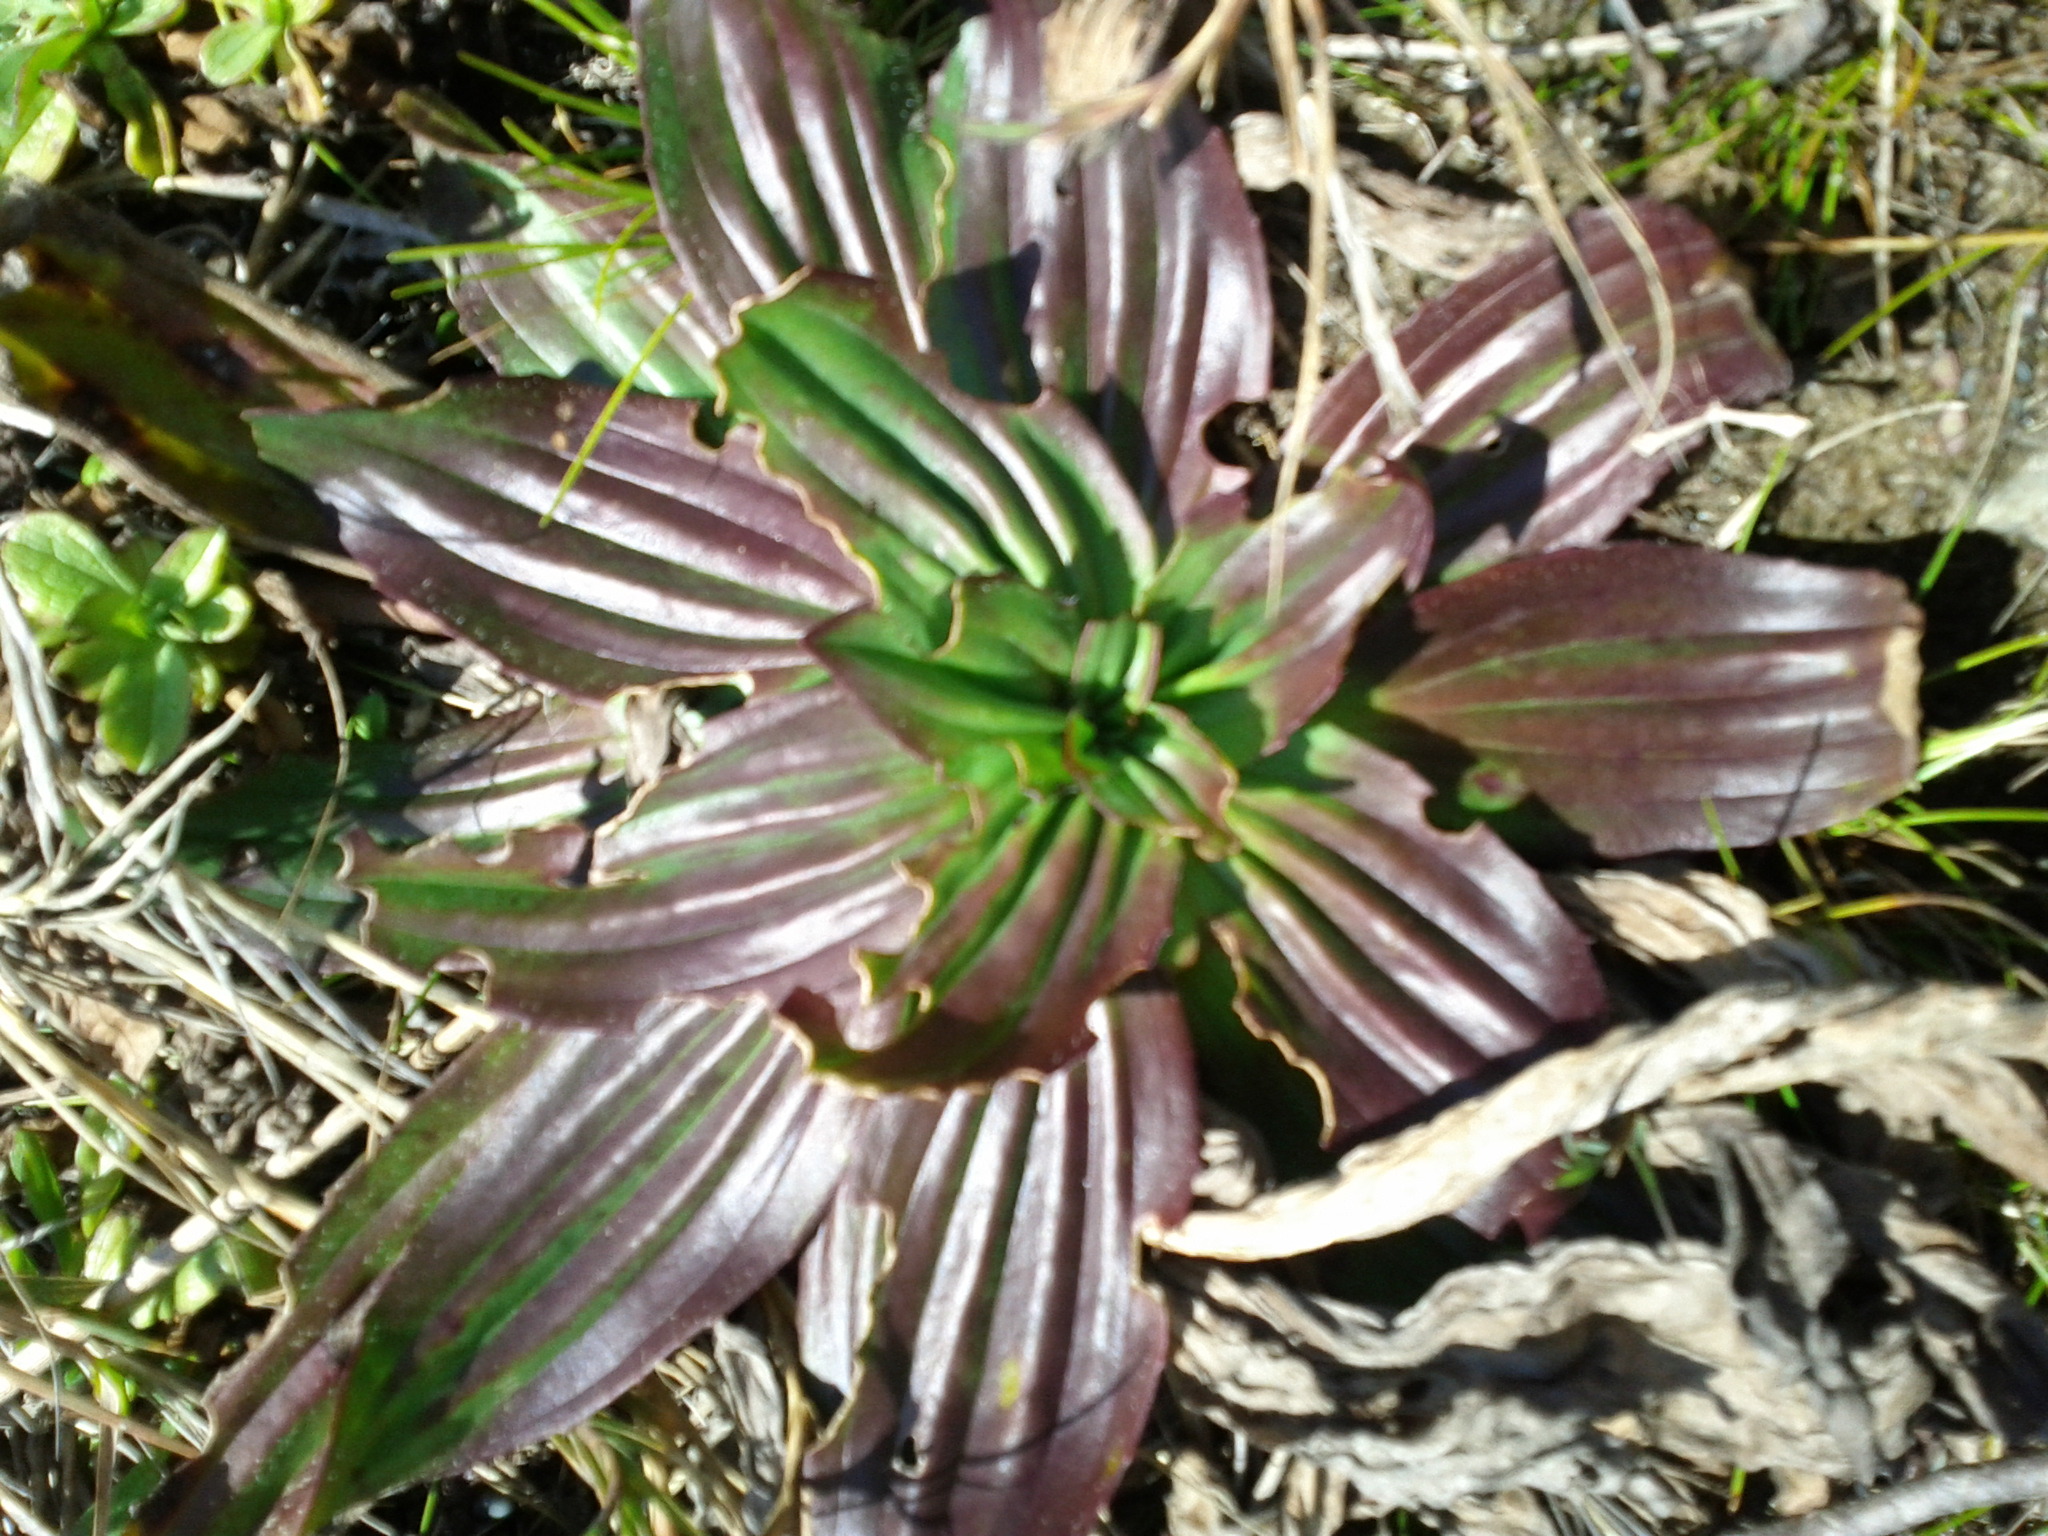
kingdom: Plantae
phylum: Tracheophyta
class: Magnoliopsida
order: Lamiales
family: Plantaginaceae
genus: Plantago
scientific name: Plantago subnuda
